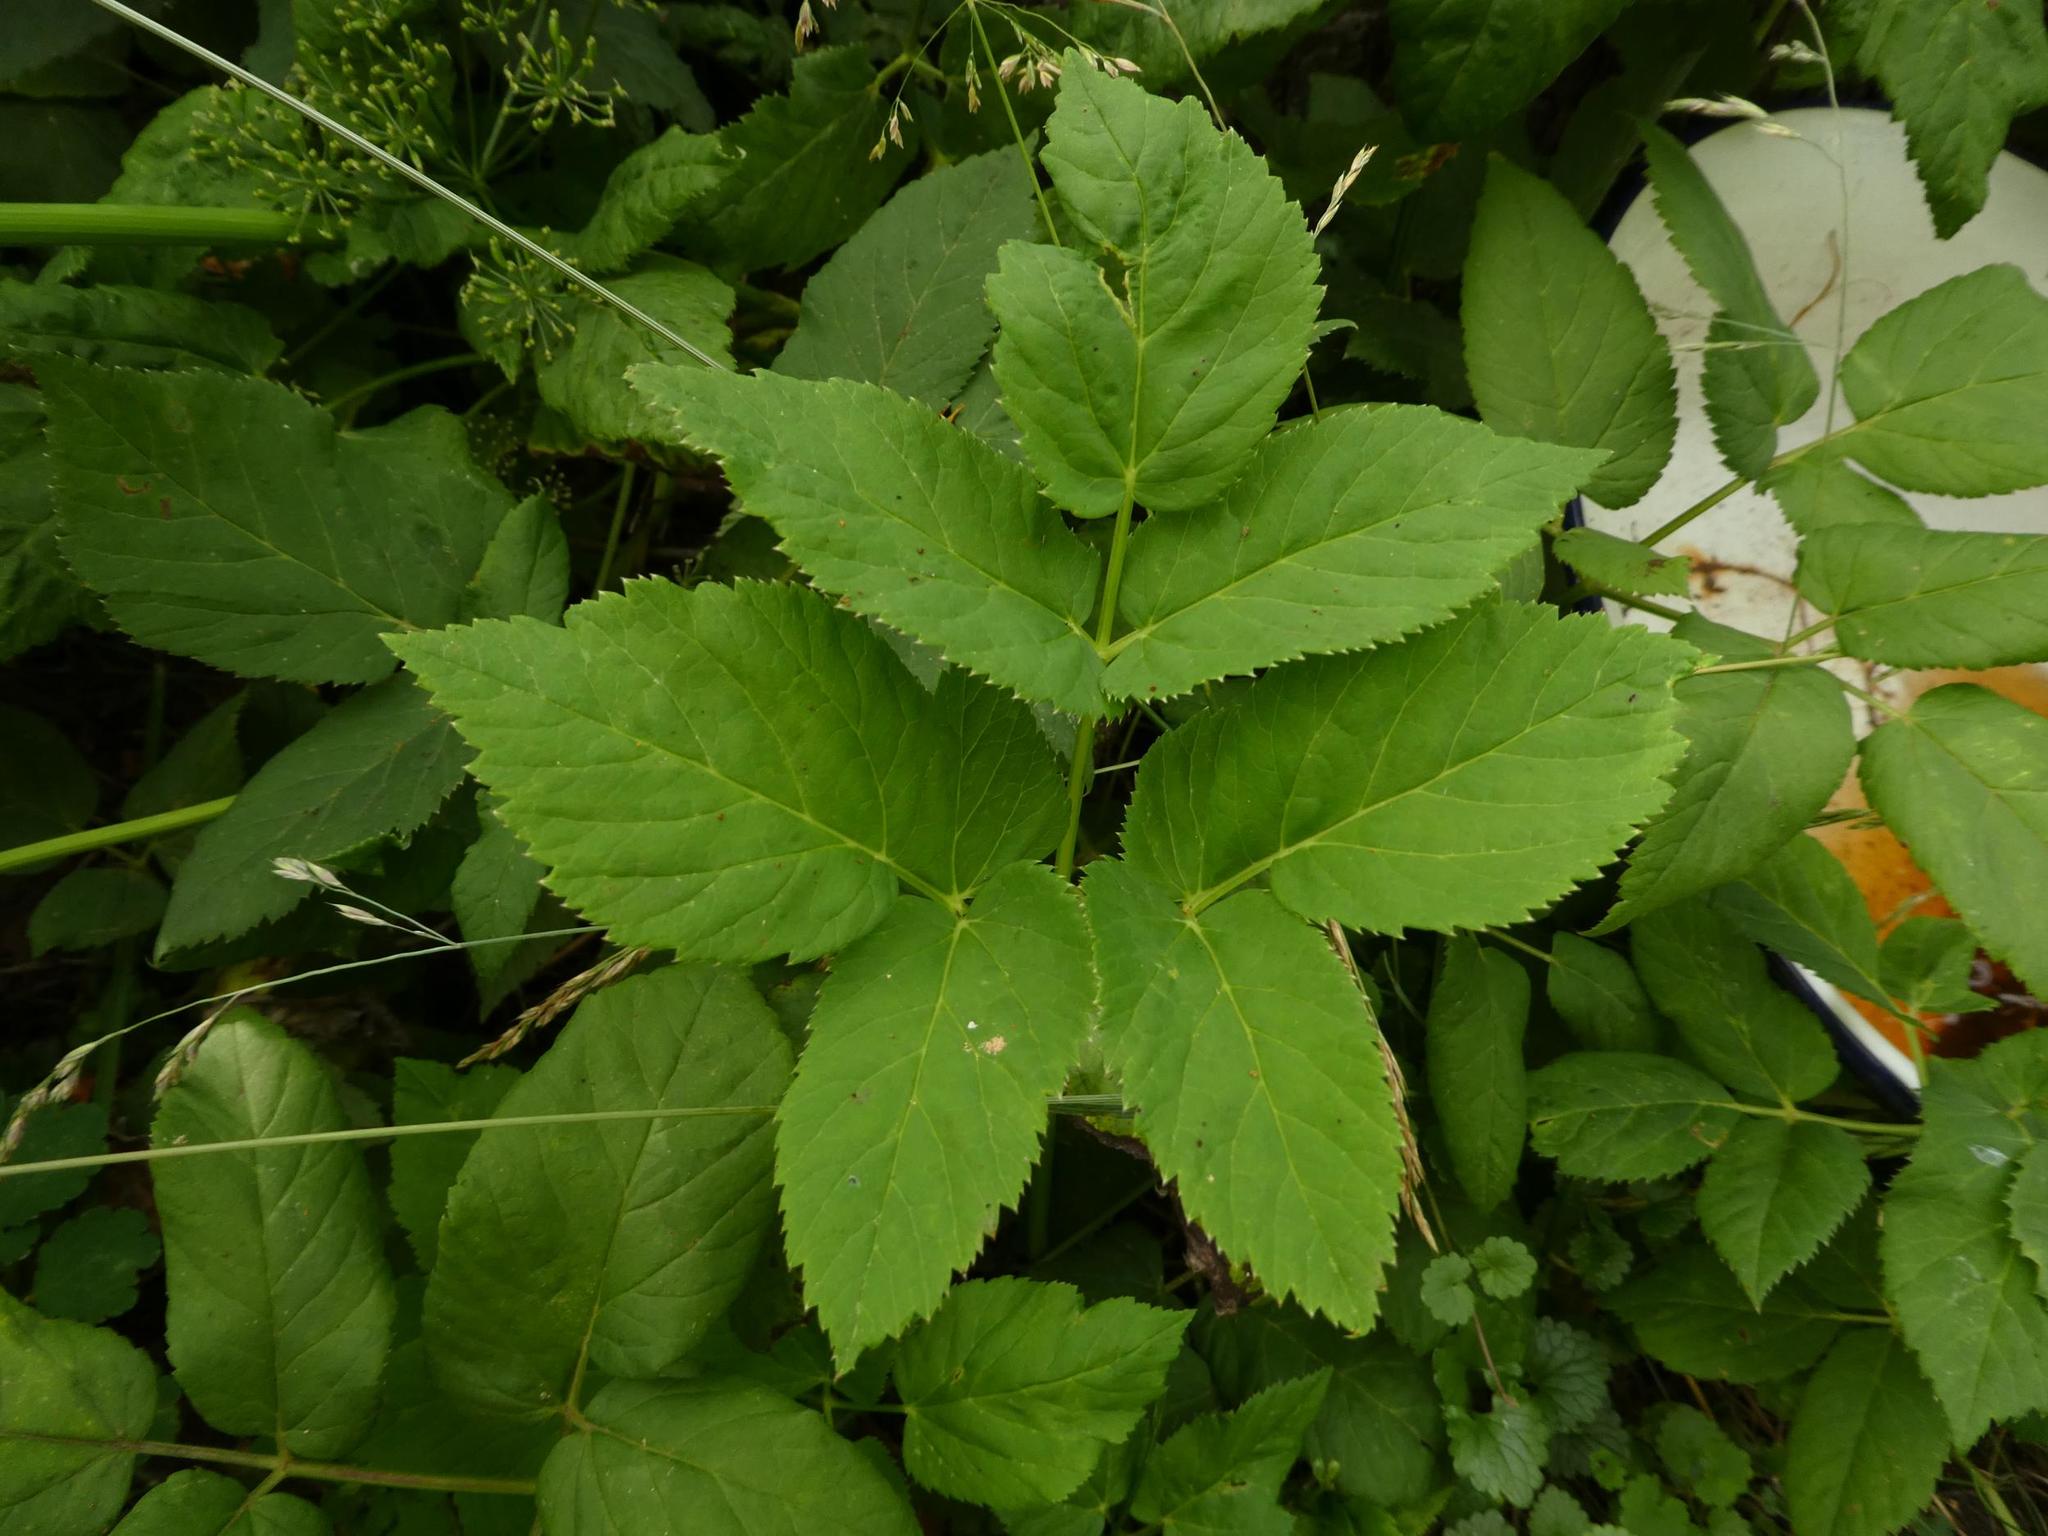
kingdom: Plantae
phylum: Tracheophyta
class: Magnoliopsida
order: Apiales
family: Apiaceae
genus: Aegopodium
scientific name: Aegopodium podagraria
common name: Ground-elder
